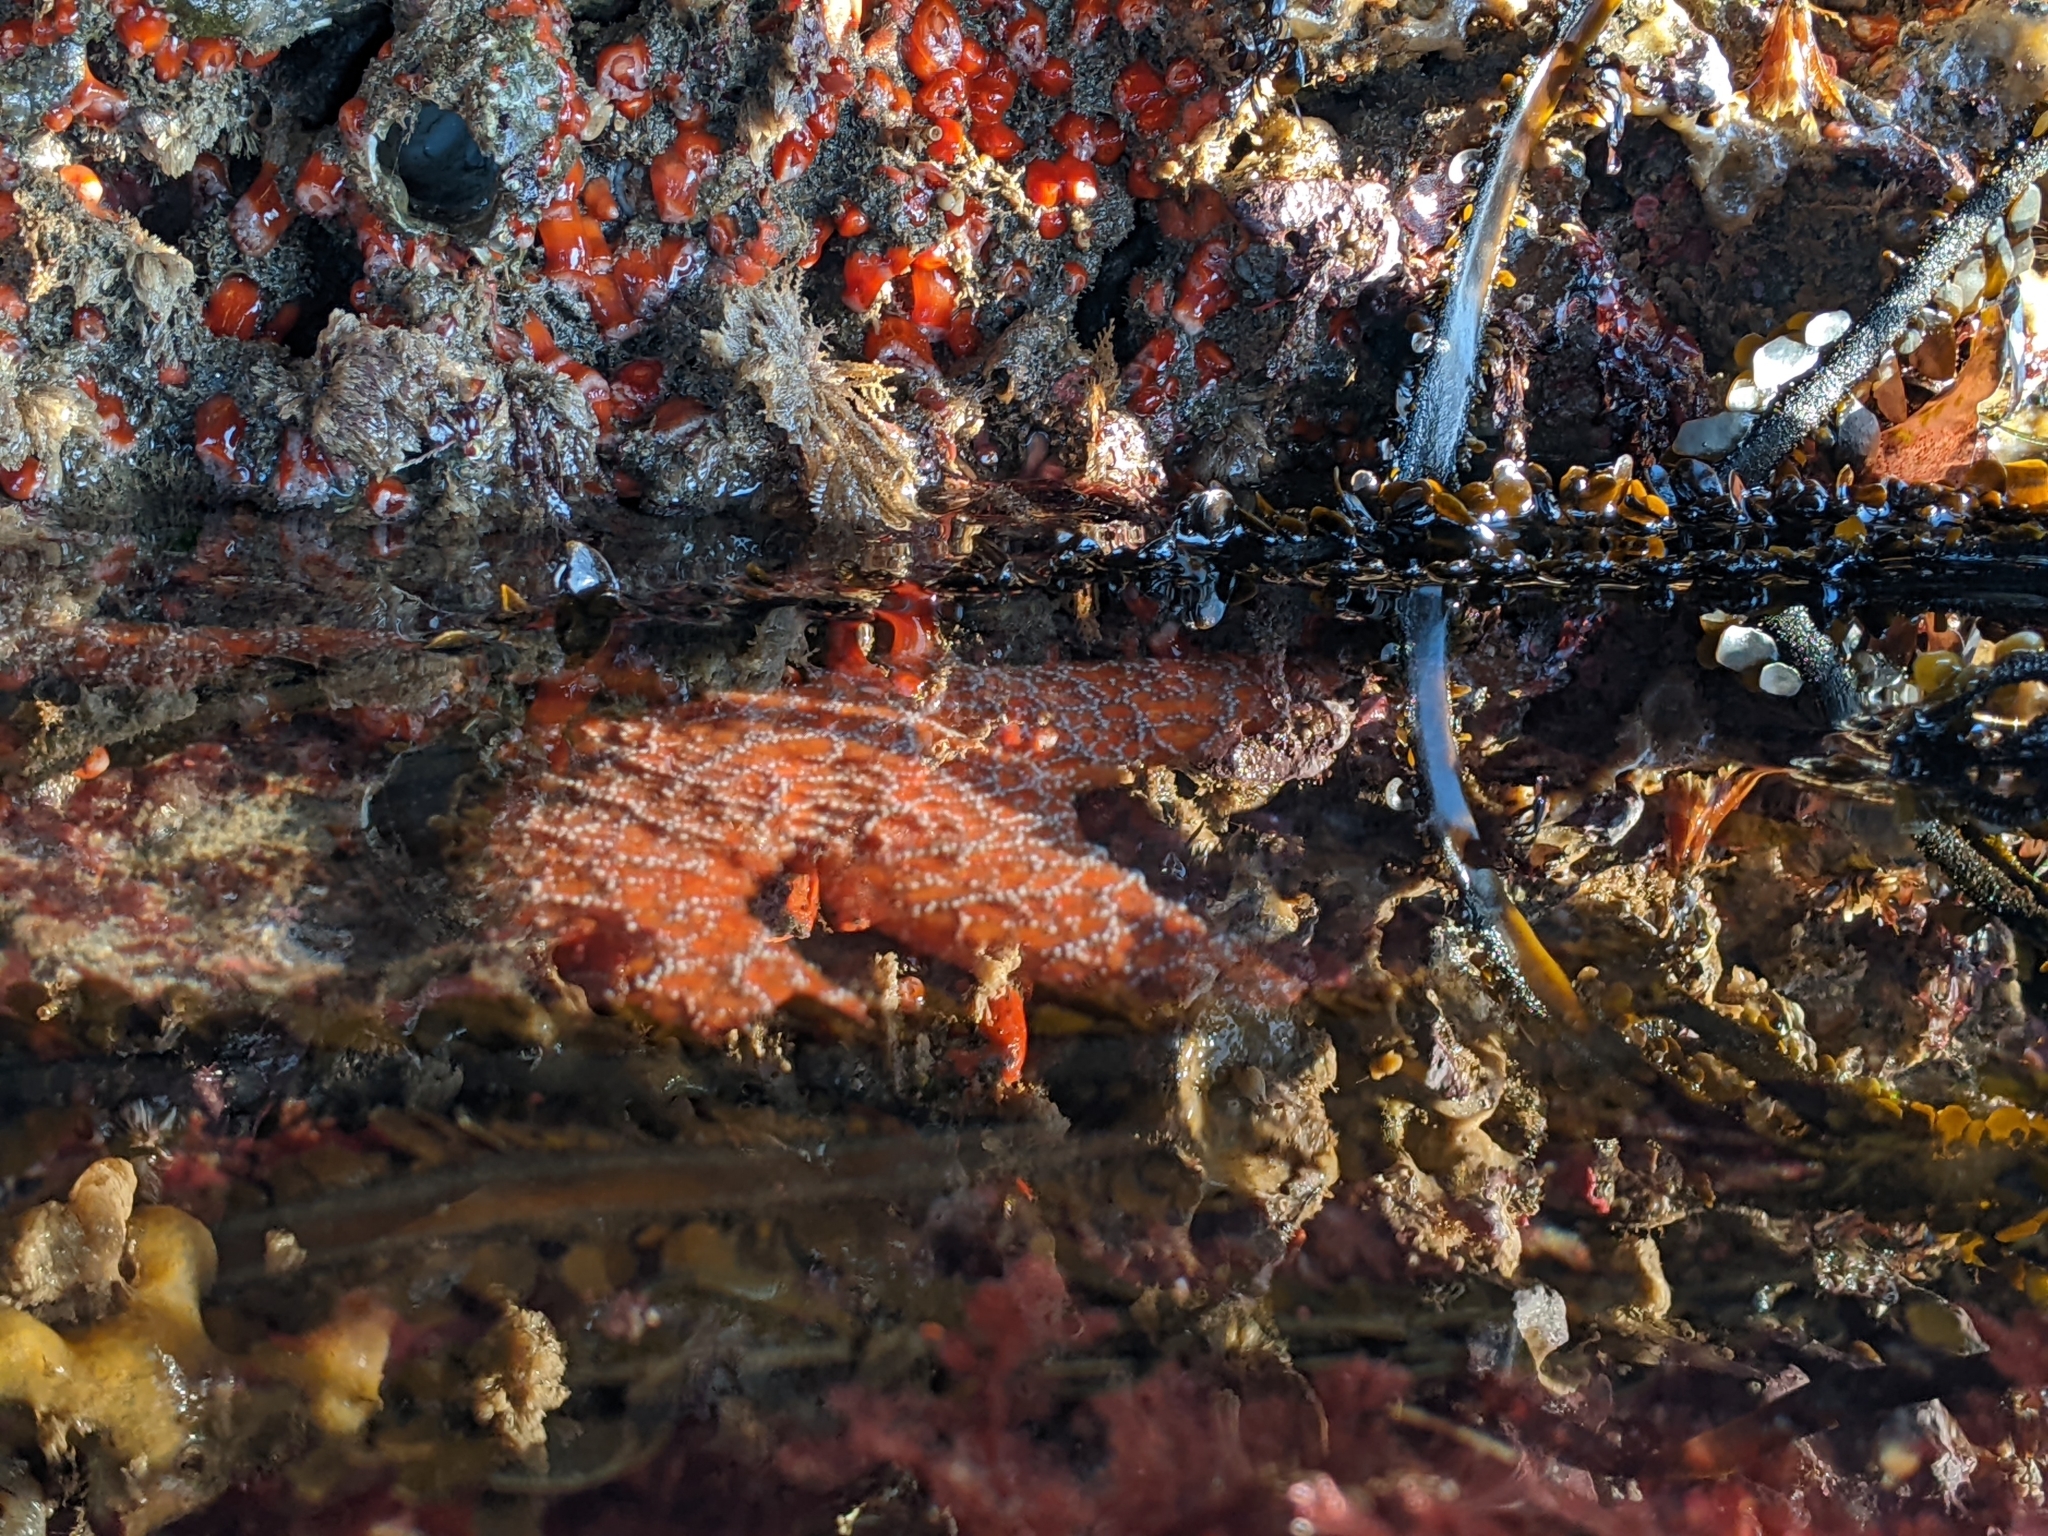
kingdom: Animalia
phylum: Echinodermata
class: Asteroidea
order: Forcipulatida
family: Asteriidae
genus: Pisaster
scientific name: Pisaster ochraceus
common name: Ochre stars
